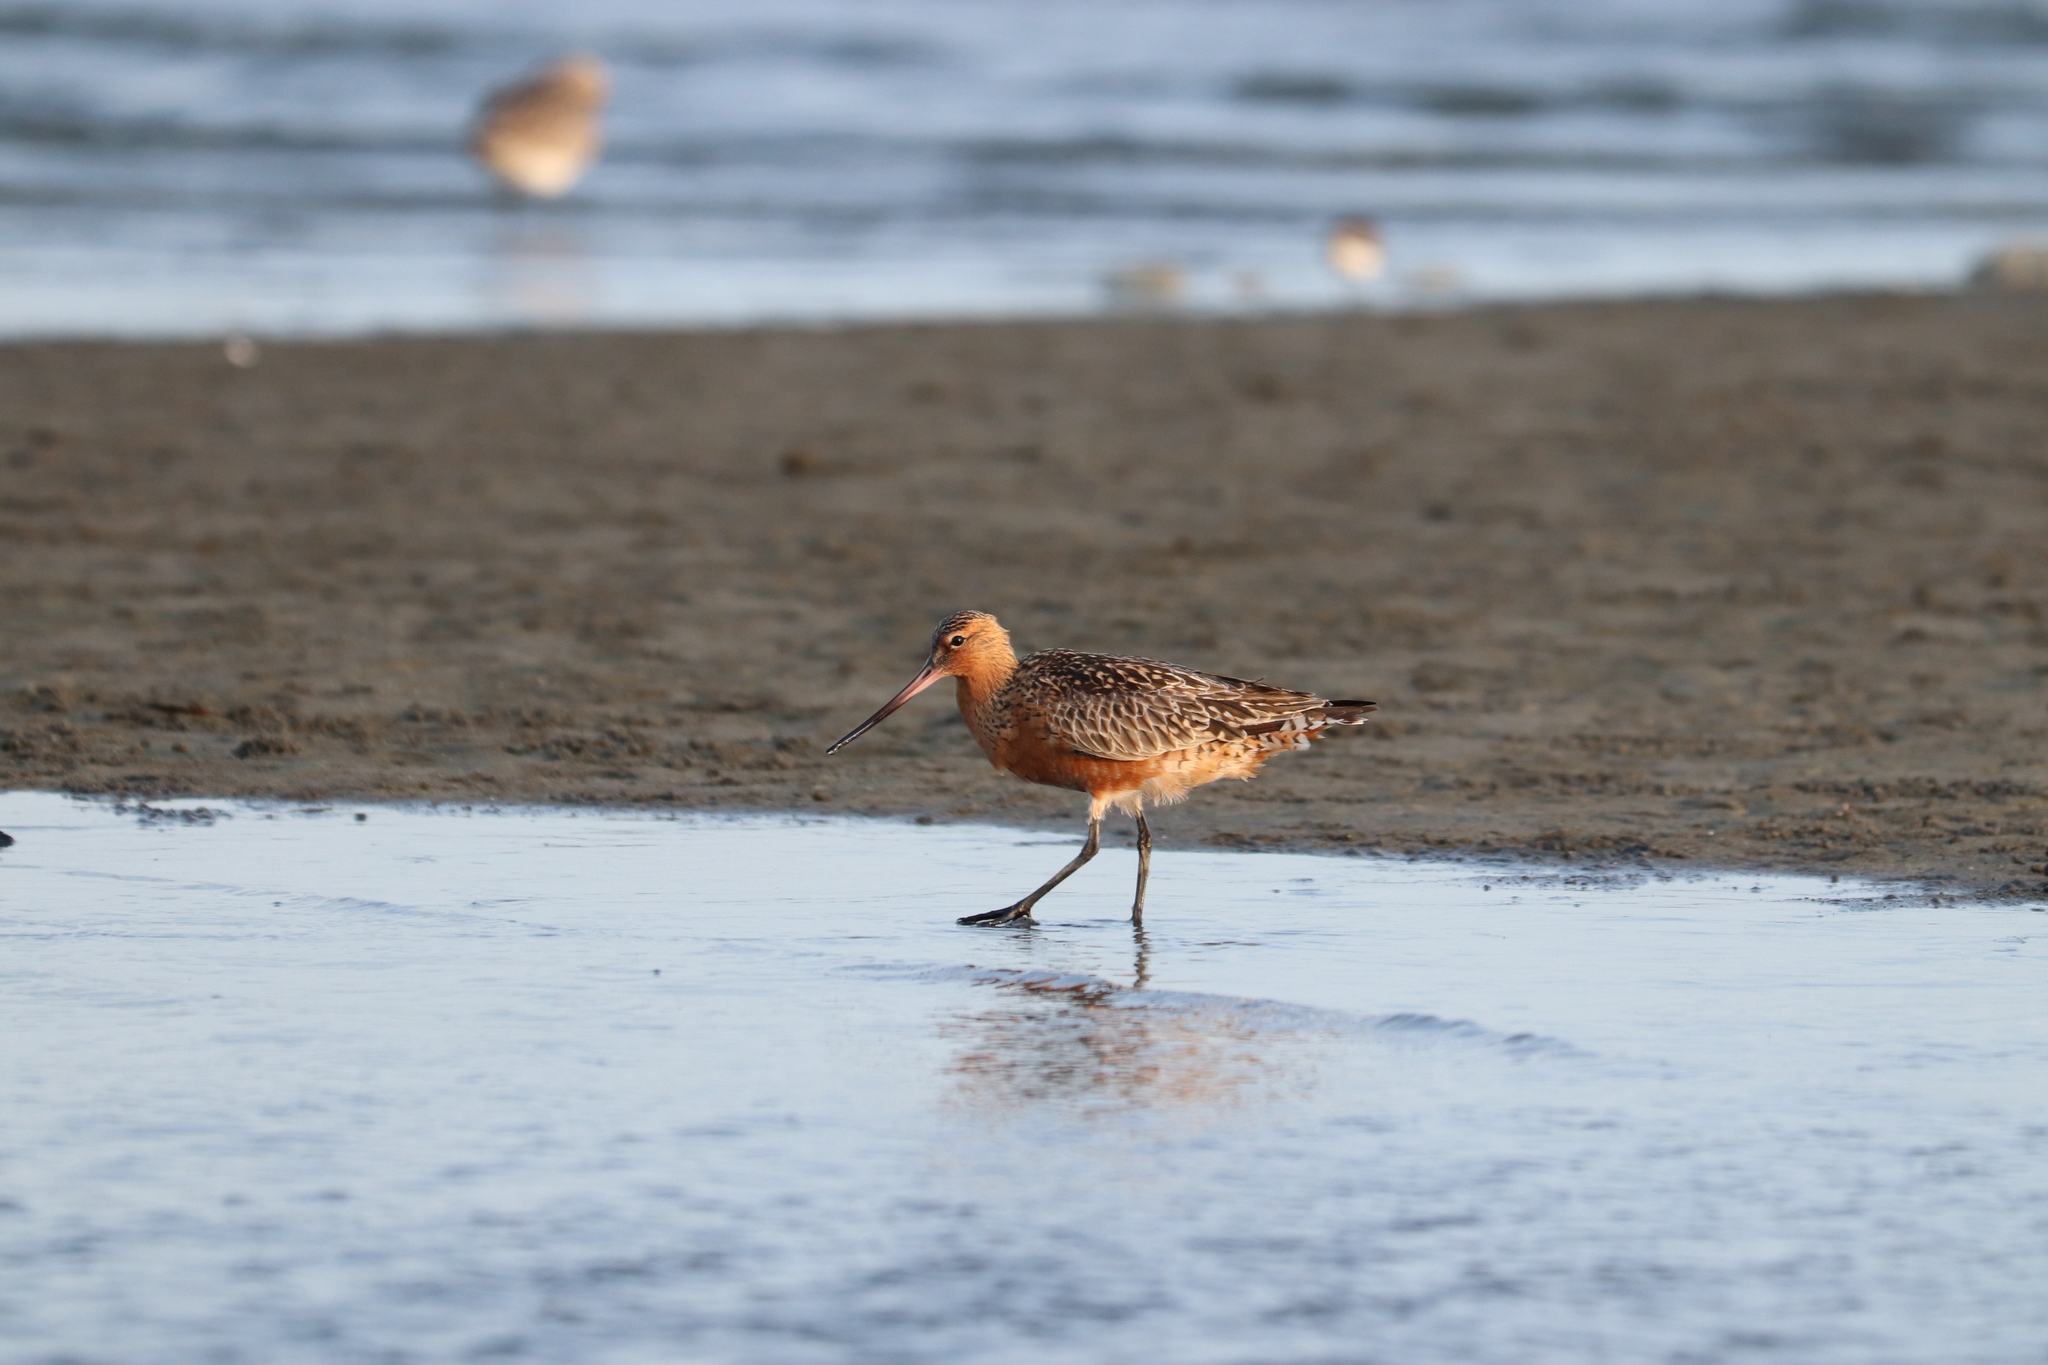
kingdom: Animalia
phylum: Chordata
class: Aves
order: Charadriiformes
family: Scolopacidae
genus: Limosa
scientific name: Limosa lapponica
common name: Bar-tailed godwit
